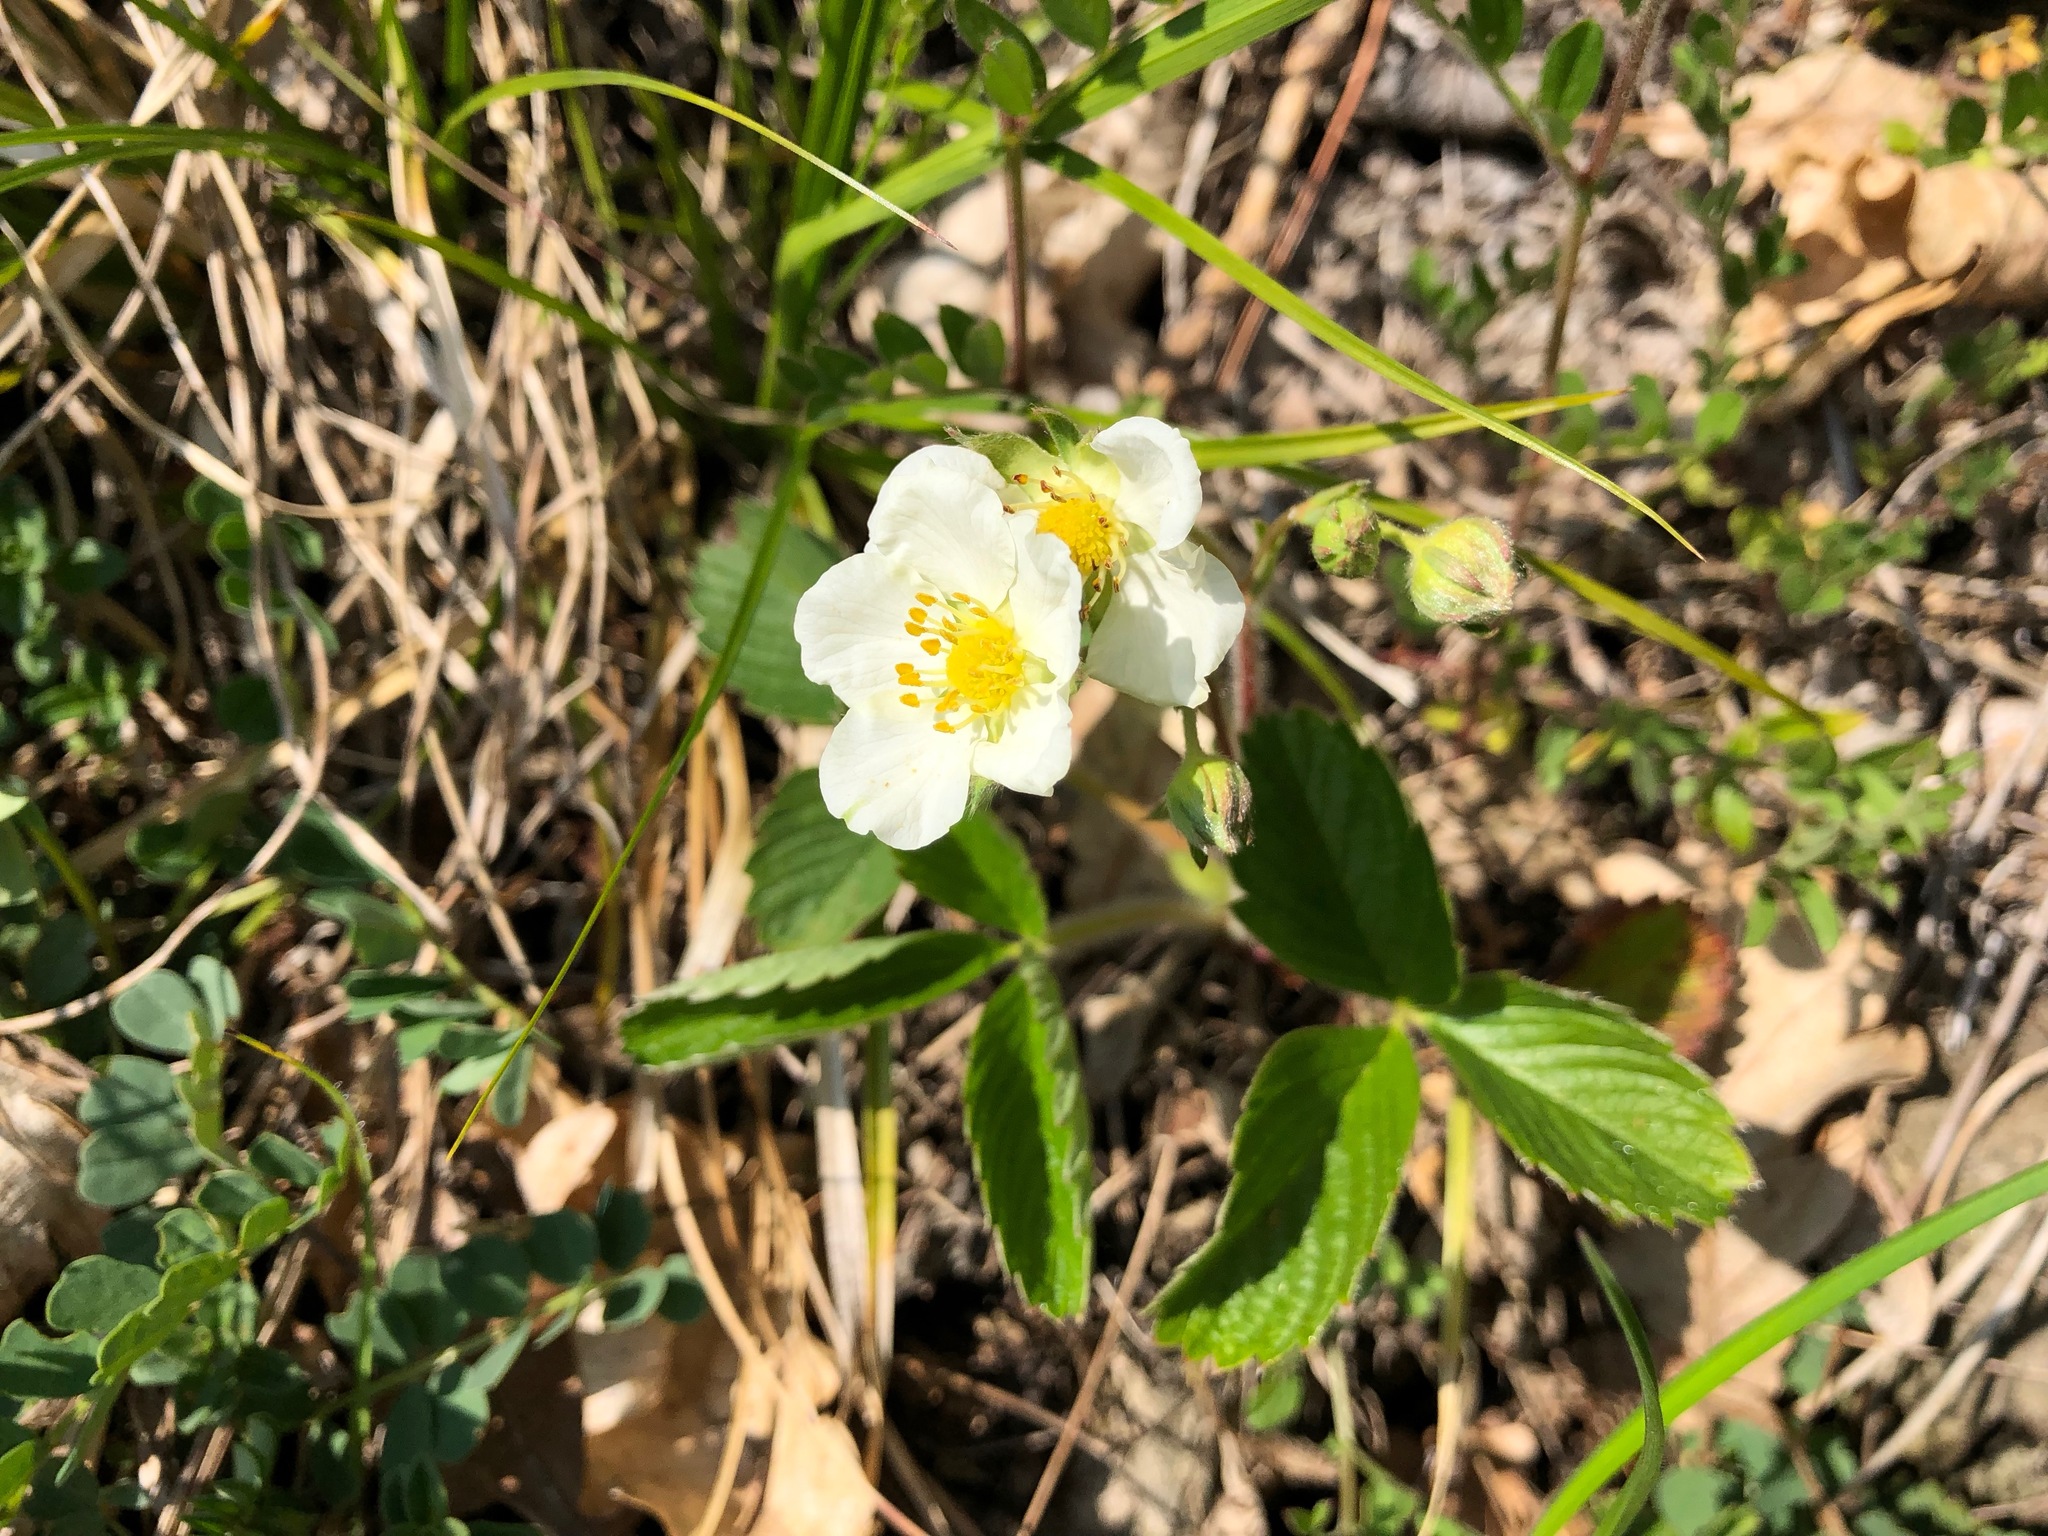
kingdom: Plantae
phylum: Tracheophyta
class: Magnoliopsida
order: Rosales
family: Rosaceae
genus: Fragaria
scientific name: Fragaria vesca
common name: Wild strawberry
